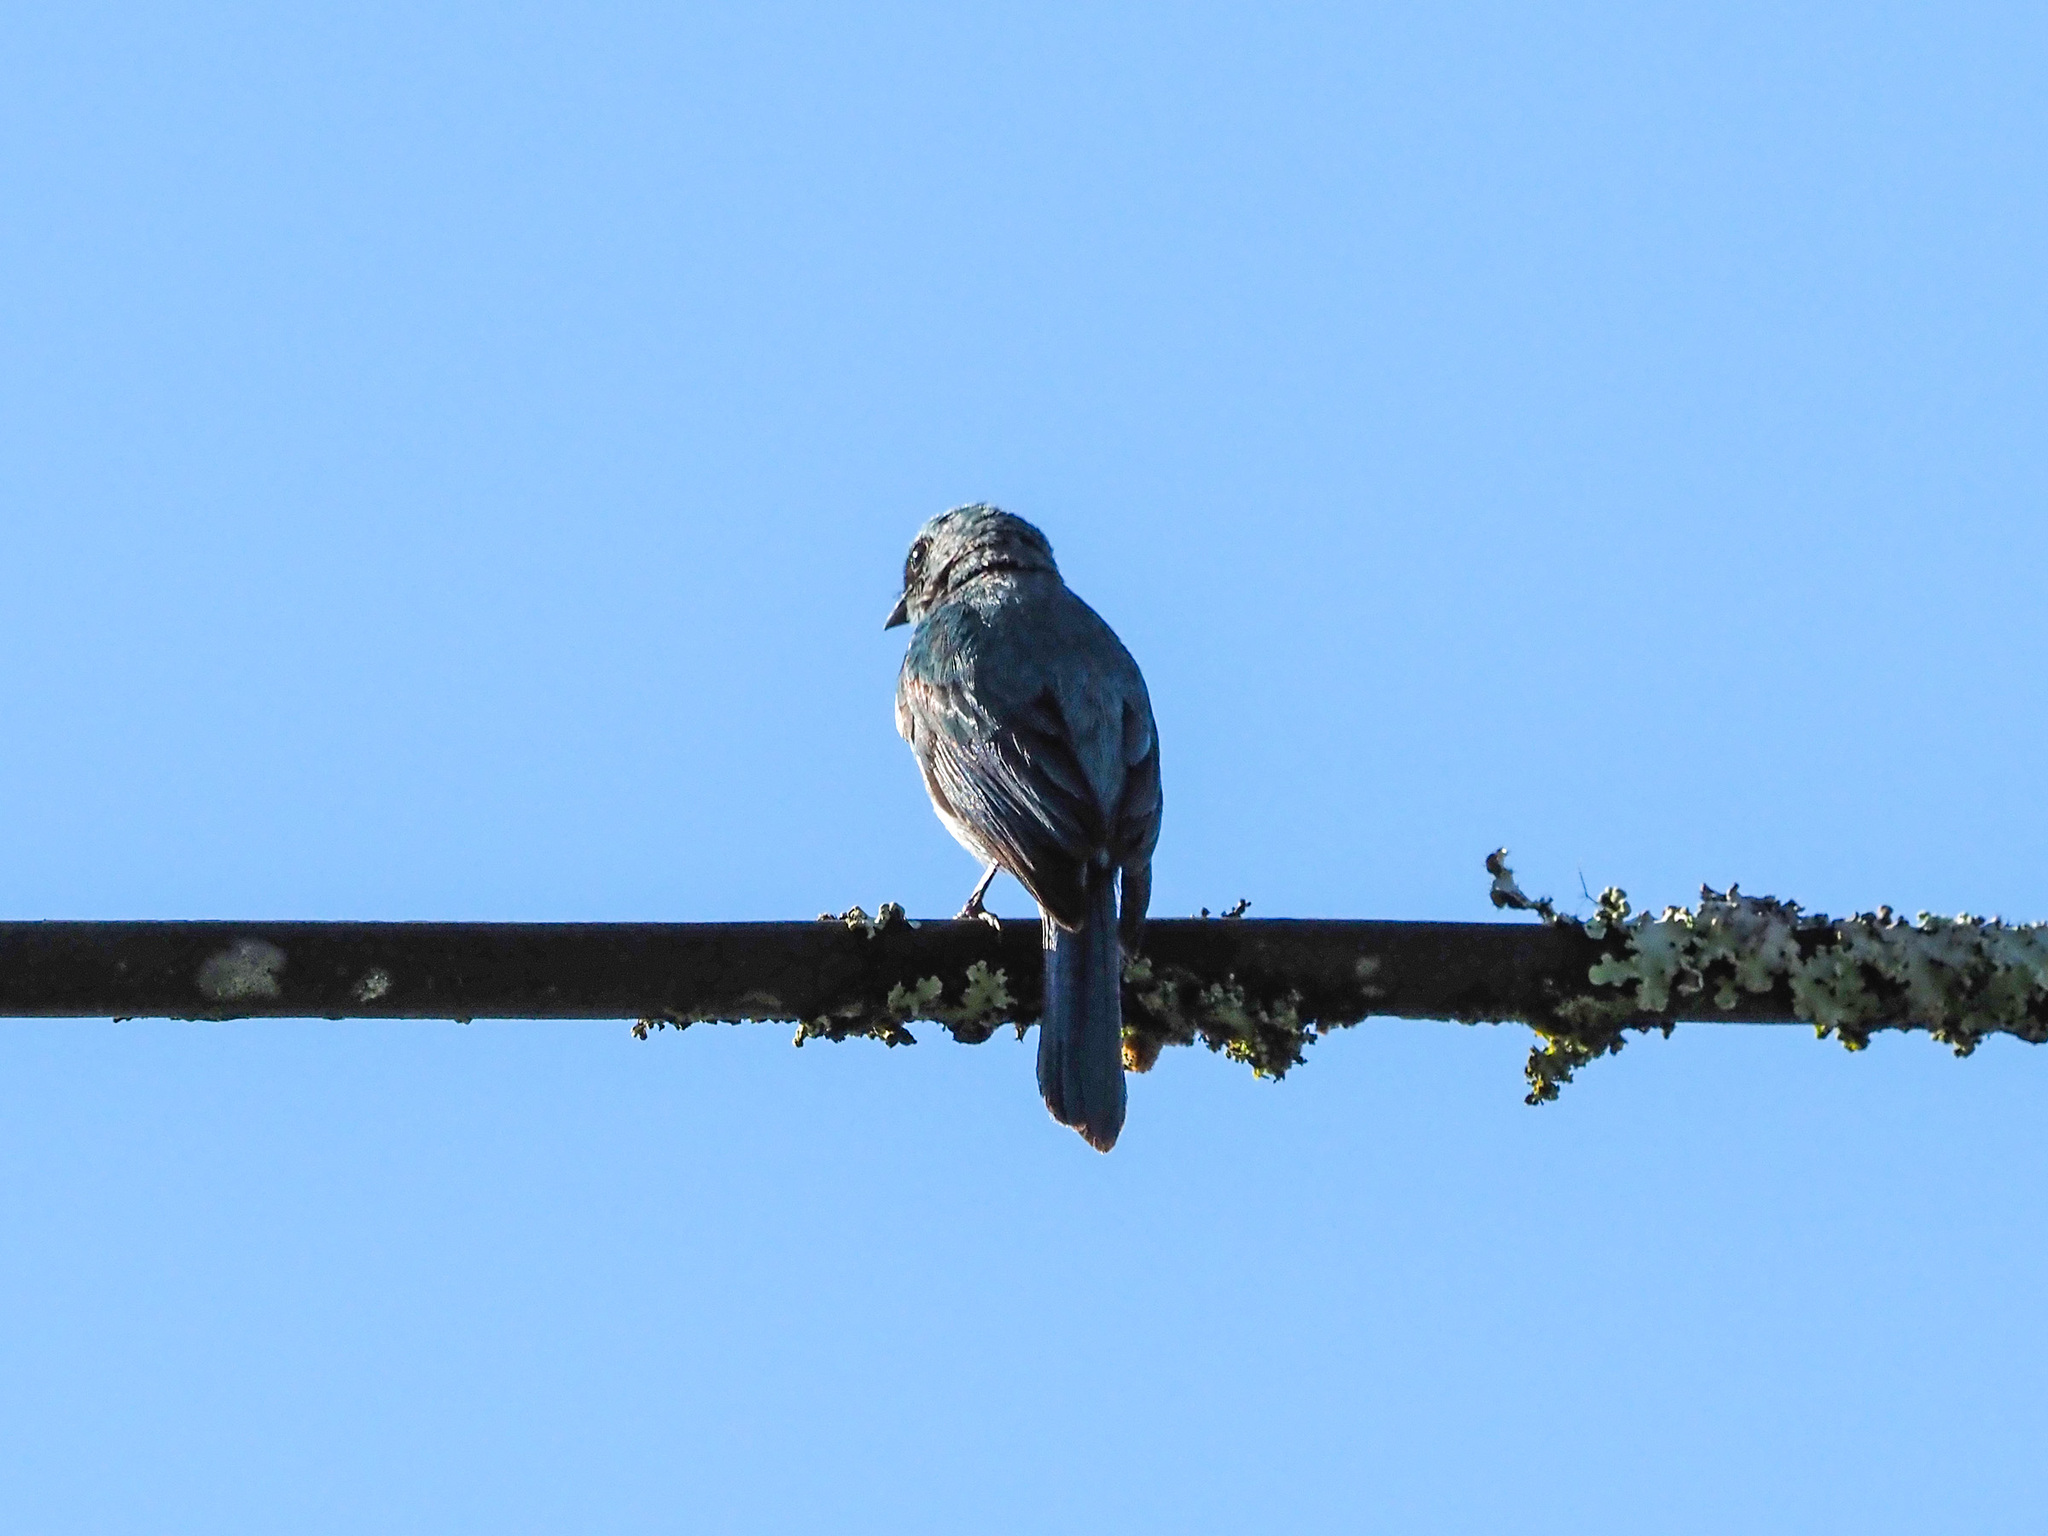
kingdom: Animalia
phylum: Chordata
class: Aves
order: Passeriformes
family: Muscicapidae
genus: Eumyias
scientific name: Eumyias thalassinus
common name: Verditer flycatcher
